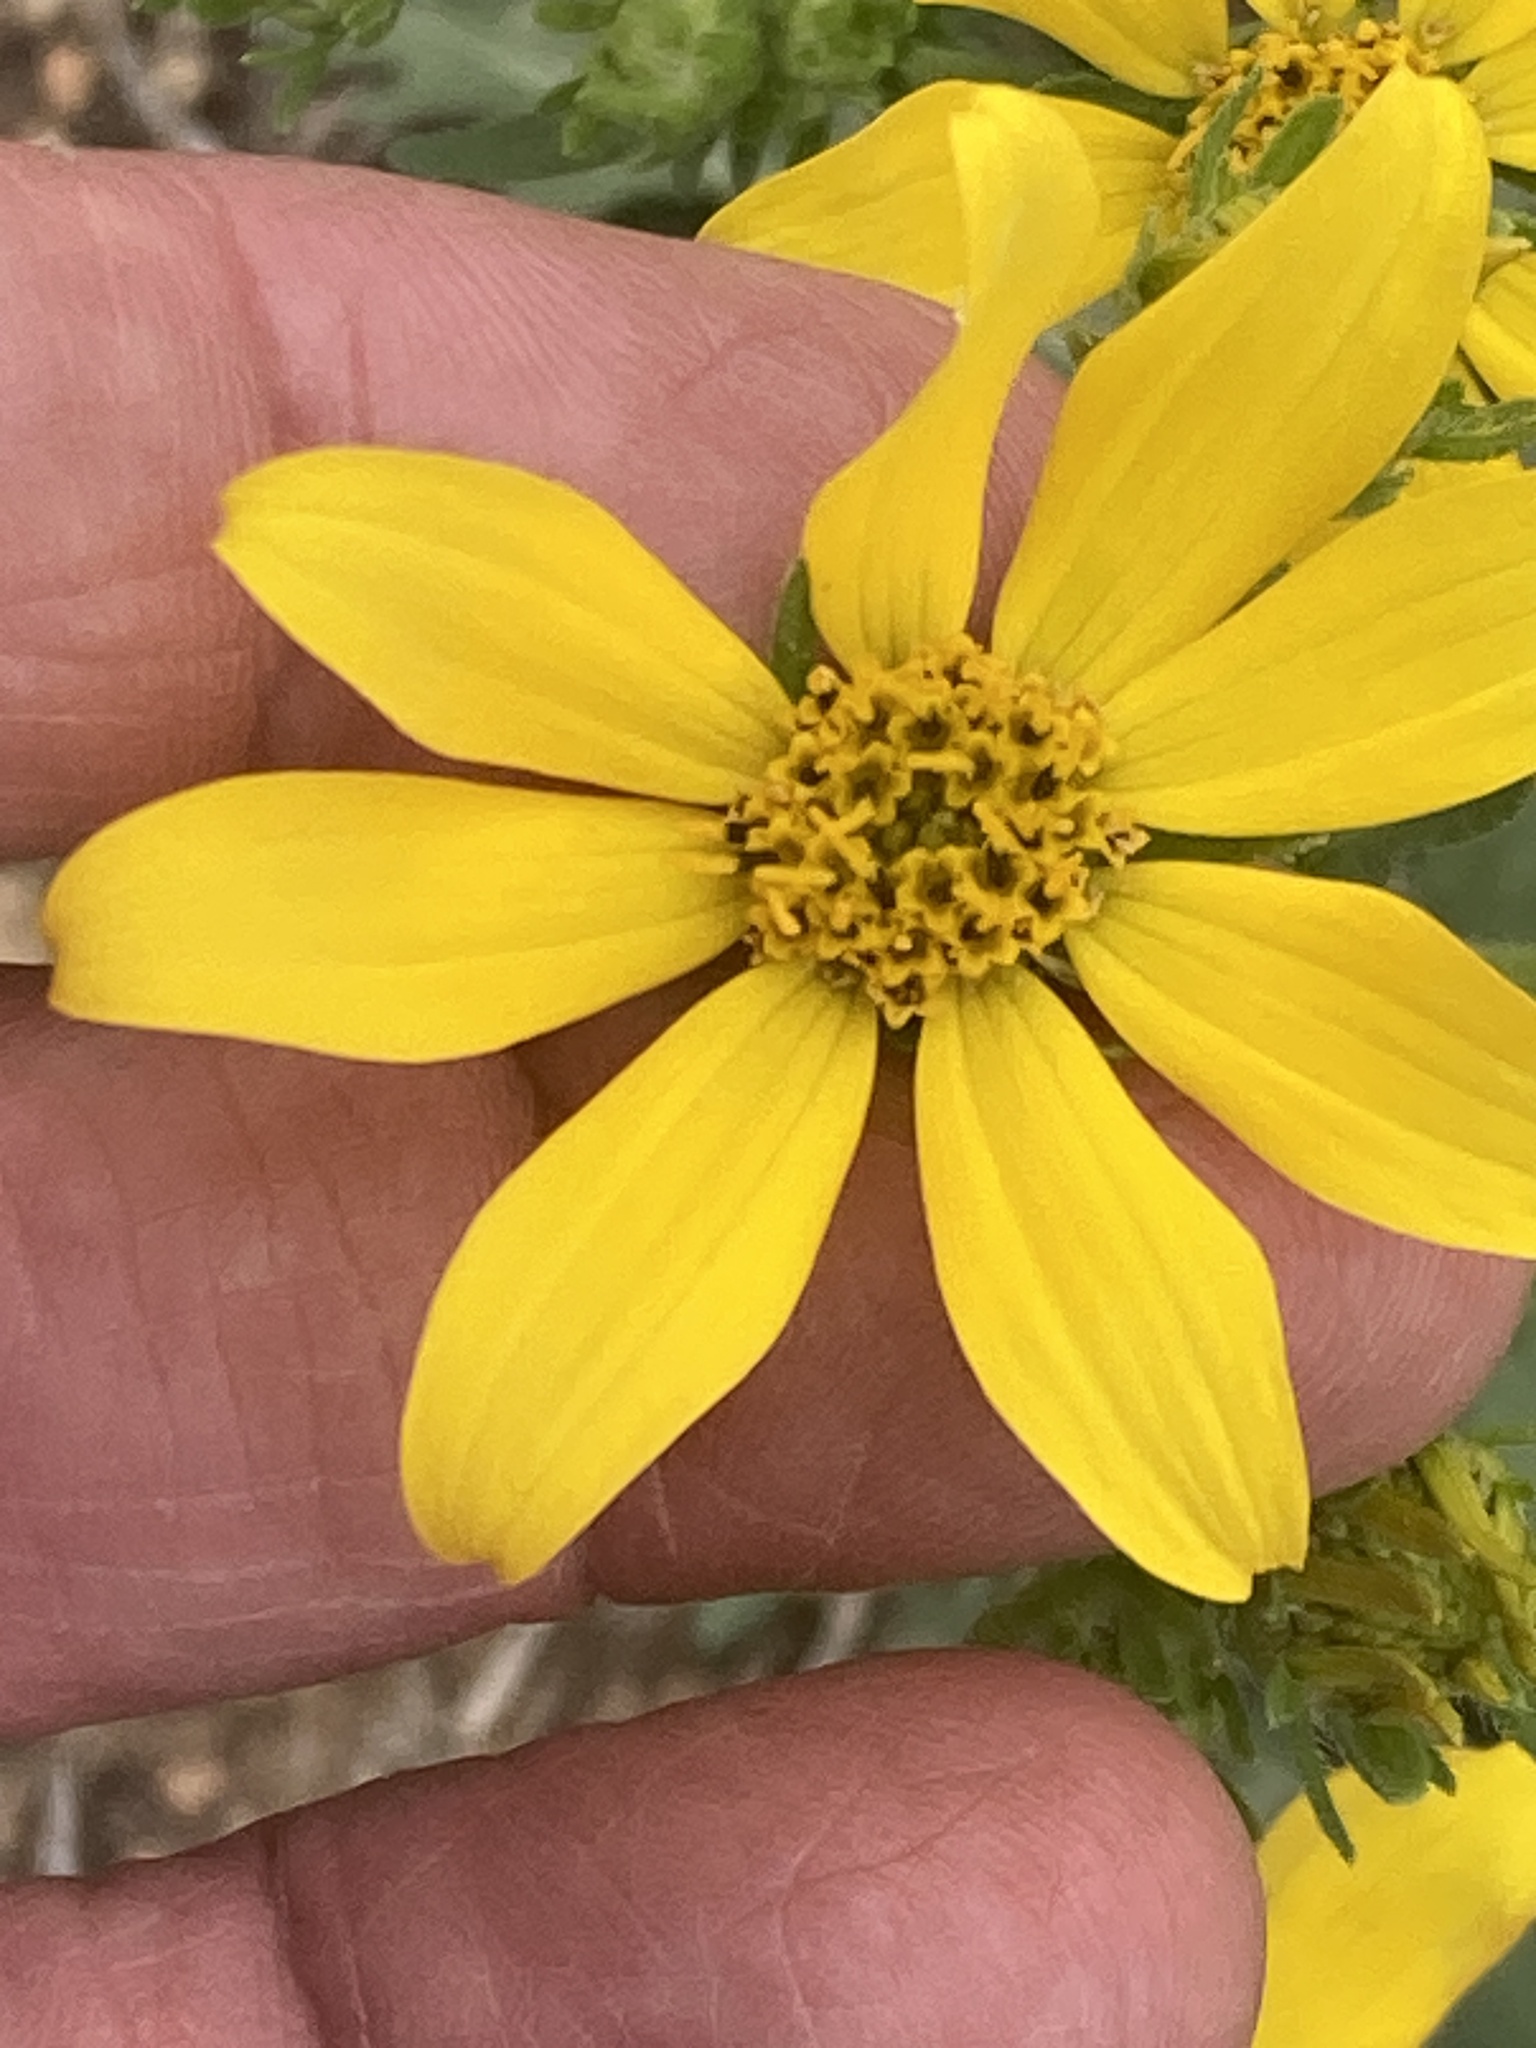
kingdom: Plantae
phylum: Tracheophyta
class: Magnoliopsida
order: Asterales
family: Asteraceae
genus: Engelmannia
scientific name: Engelmannia peristenia
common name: Engelmann's daisy
